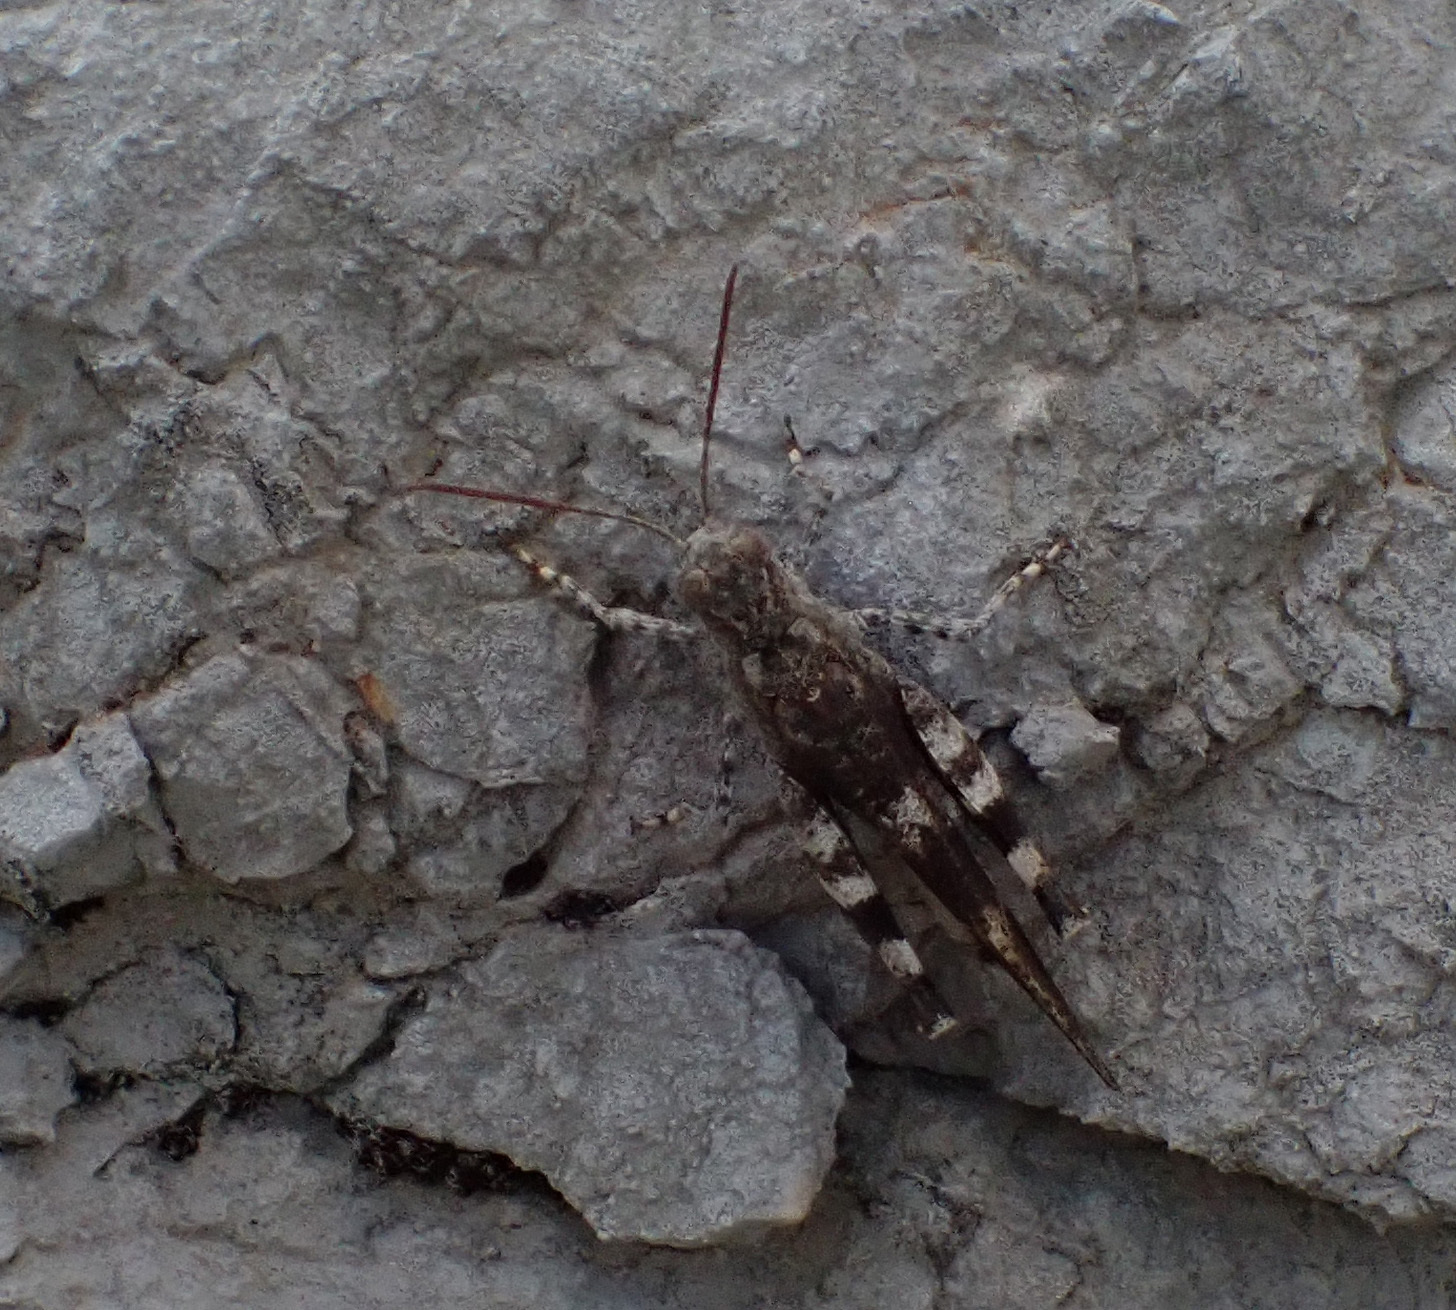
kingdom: Animalia
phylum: Arthropoda
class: Insecta
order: Orthoptera
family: Acrididae
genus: Oedipoda
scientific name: Oedipoda germanica
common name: Red band-winged grasshopper
